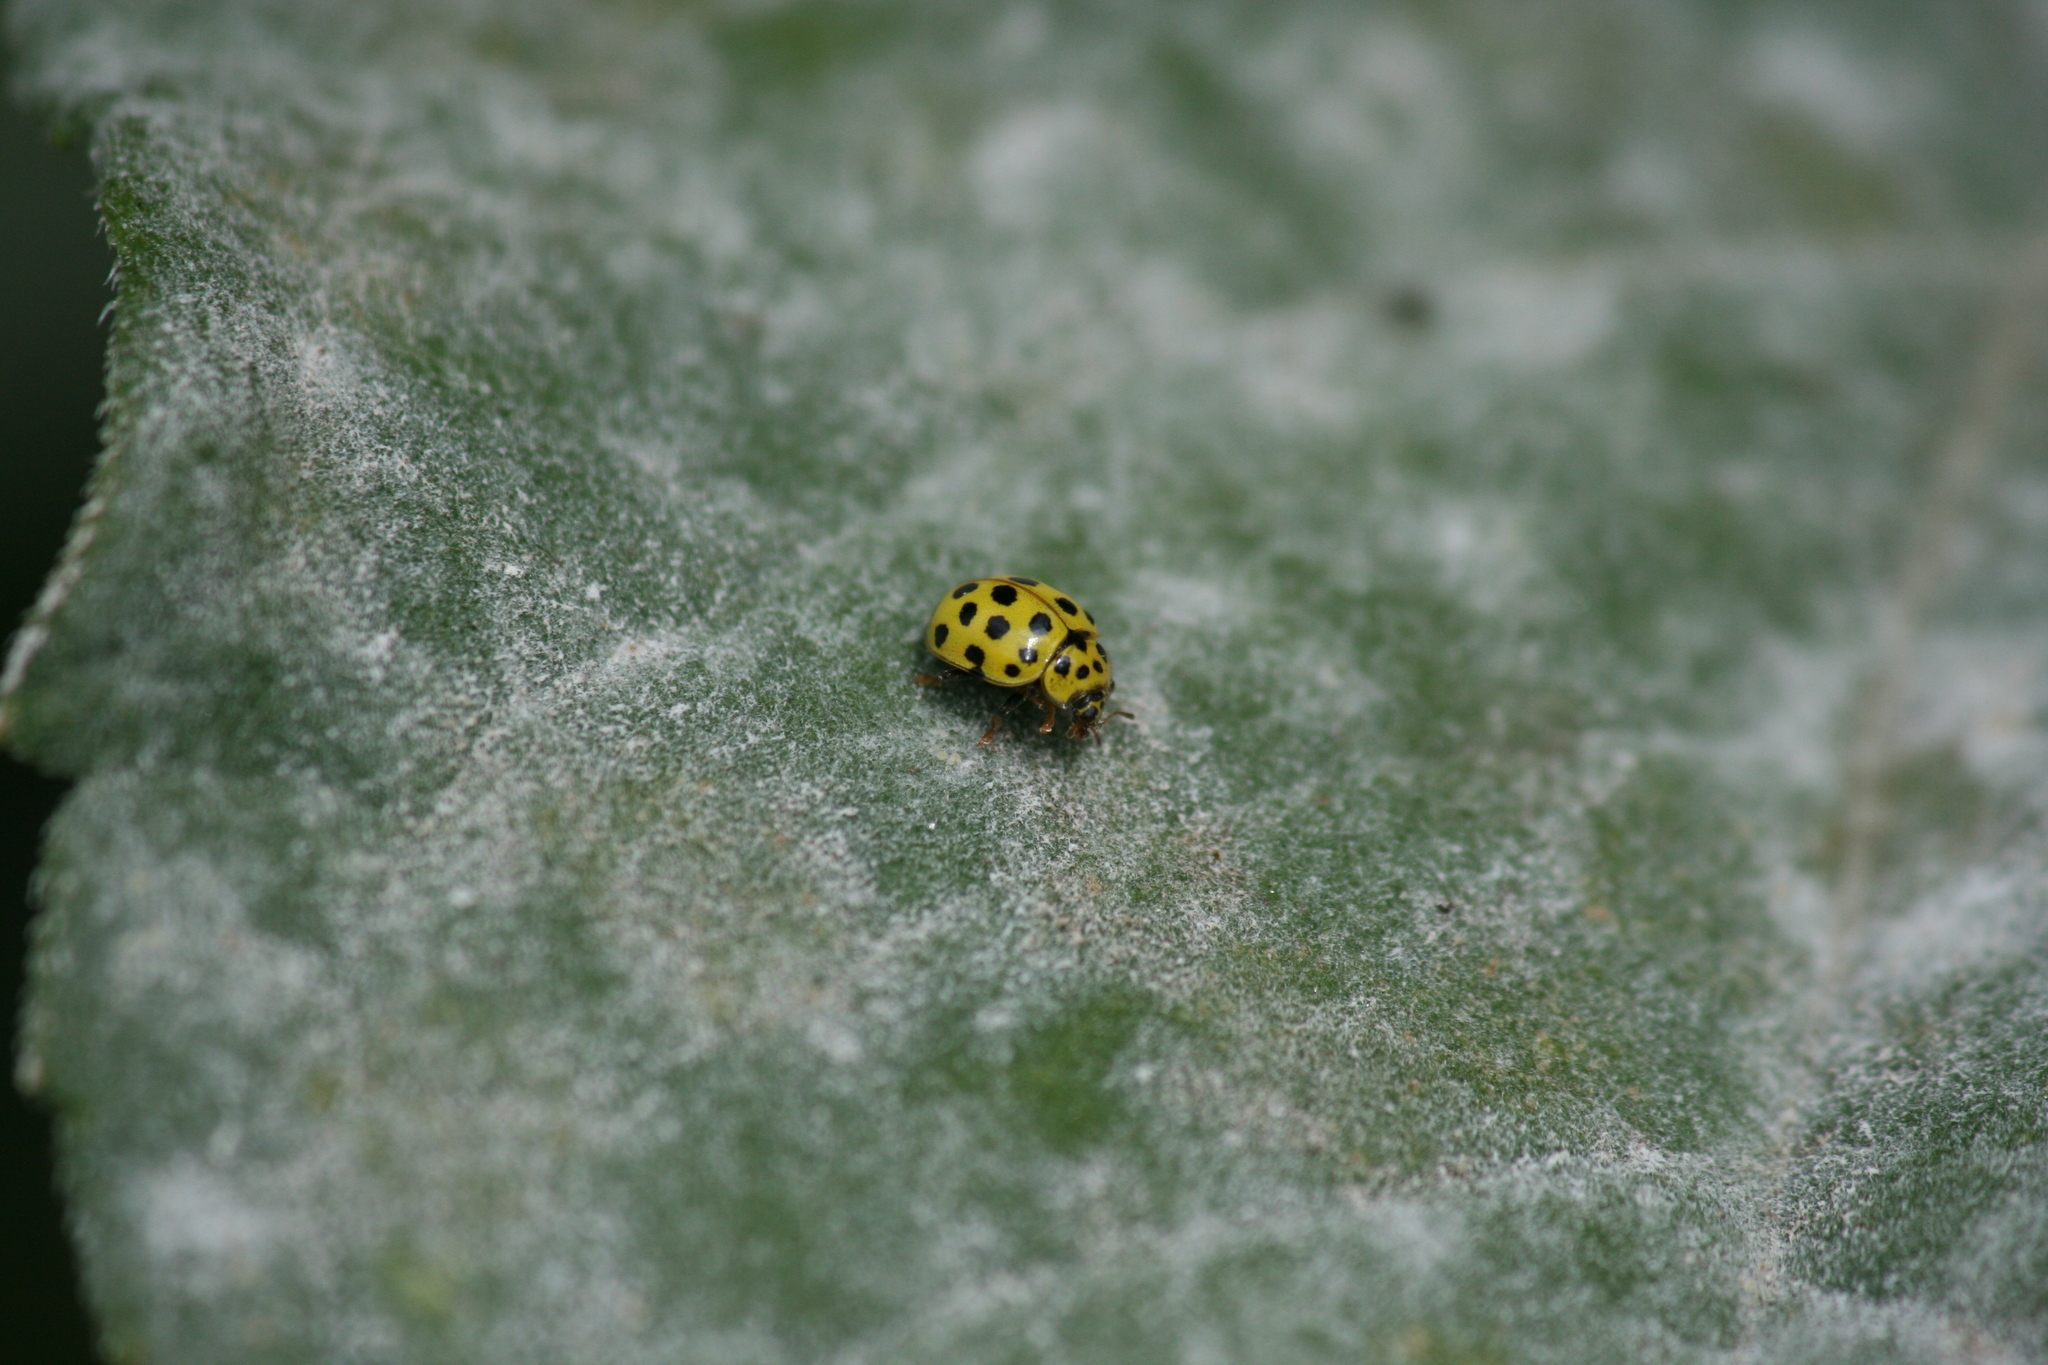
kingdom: Animalia
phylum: Arthropoda
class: Insecta
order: Coleoptera
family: Coccinellidae
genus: Psyllobora
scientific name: Psyllobora vigintiduopunctata
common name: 22-spot ladybird
